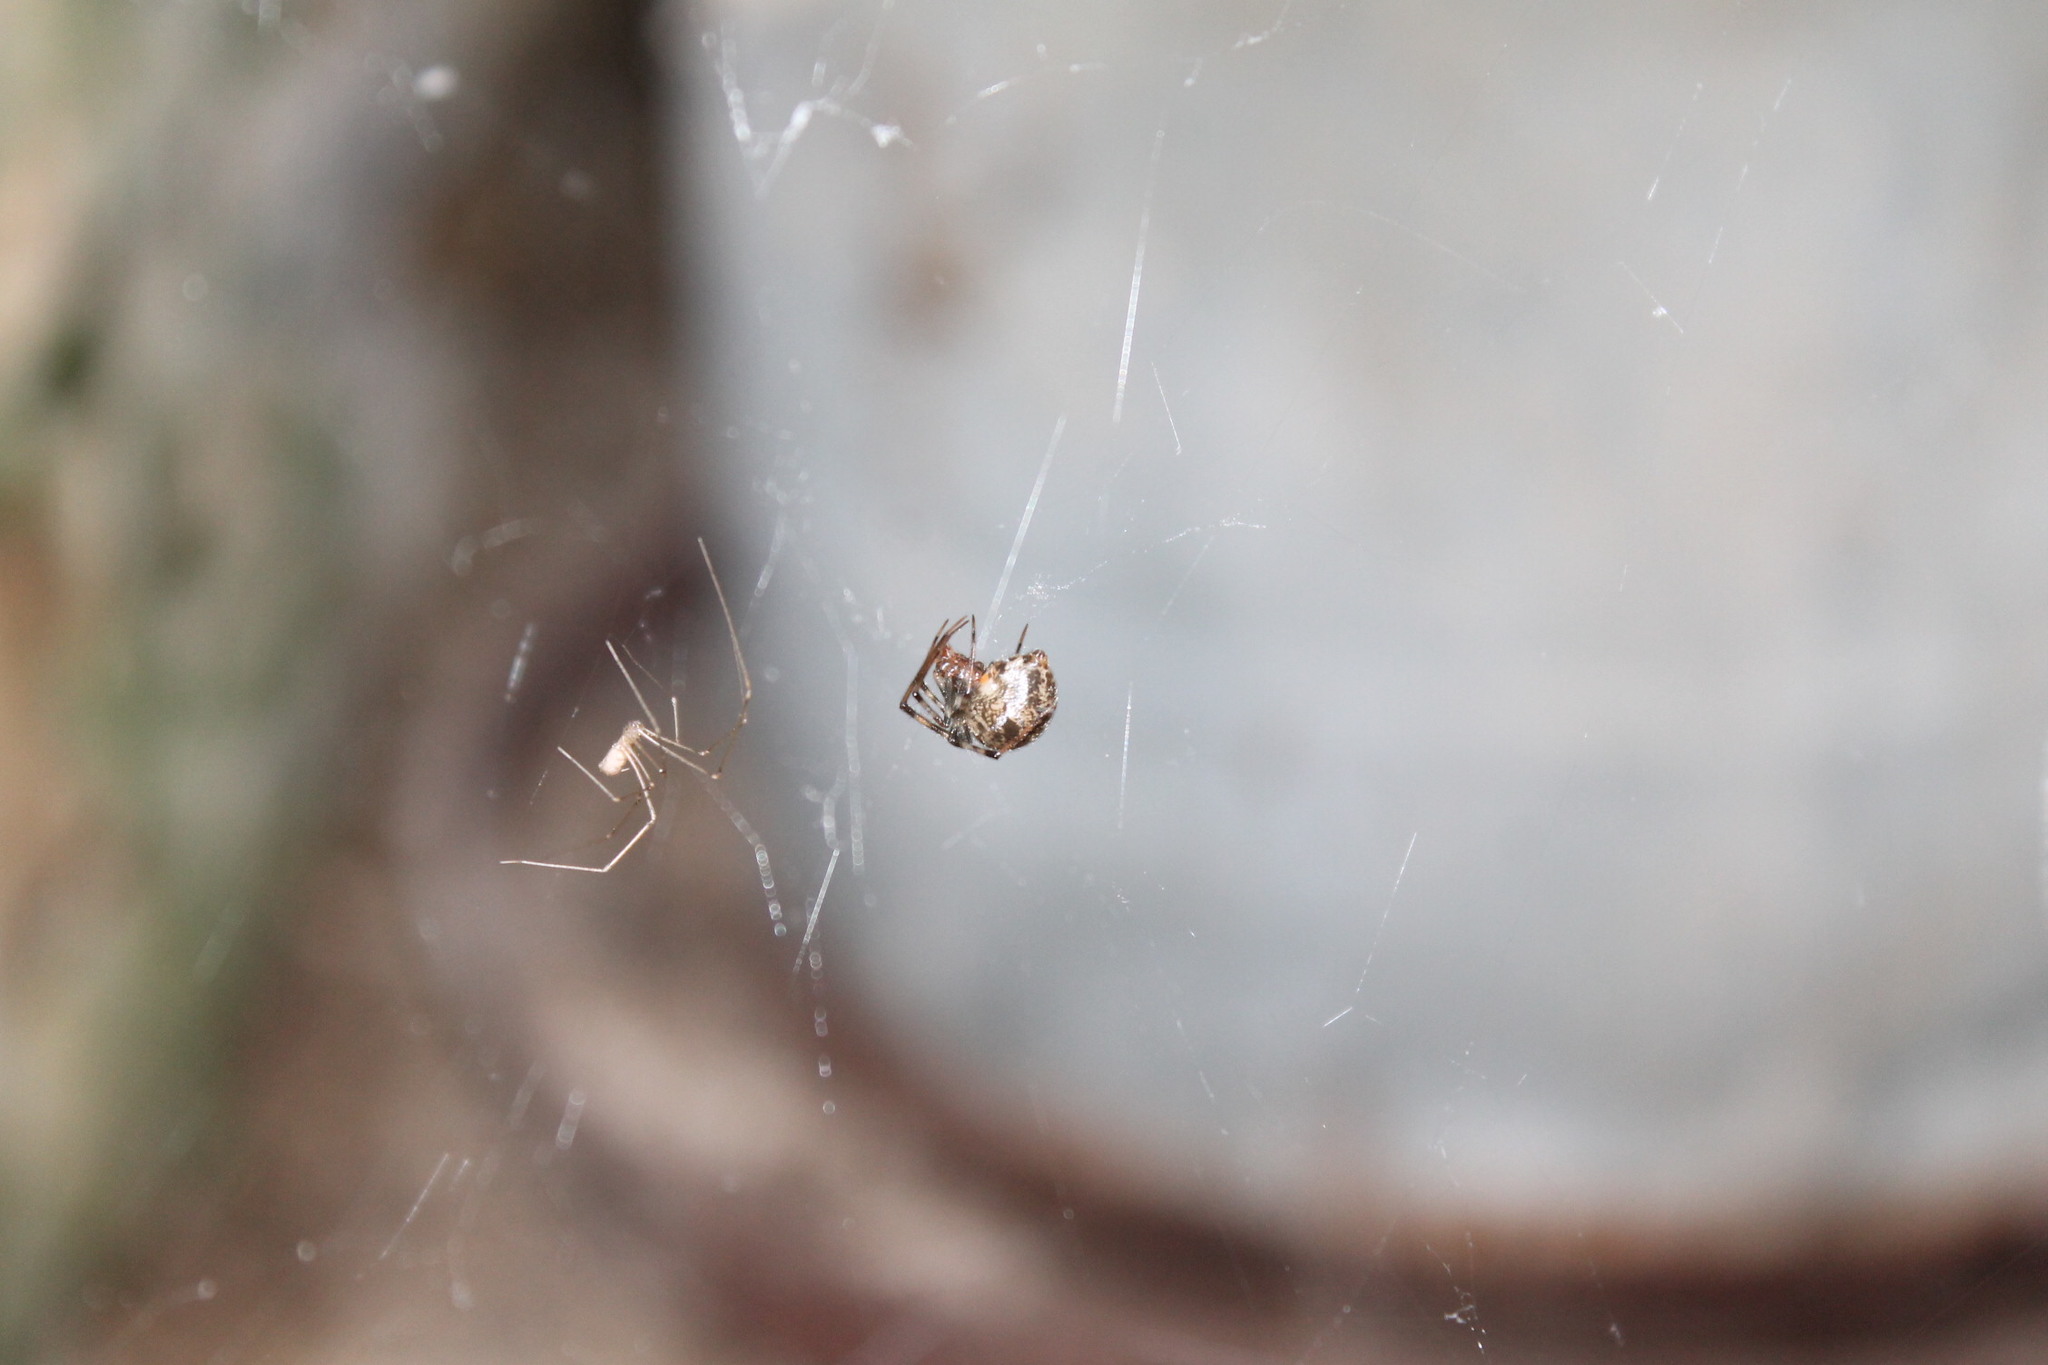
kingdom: Animalia
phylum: Arthropoda
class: Arachnida
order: Araneae
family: Theridiidae
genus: Parasteatoda
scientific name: Parasteatoda tepidariorum
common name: Common house spider
